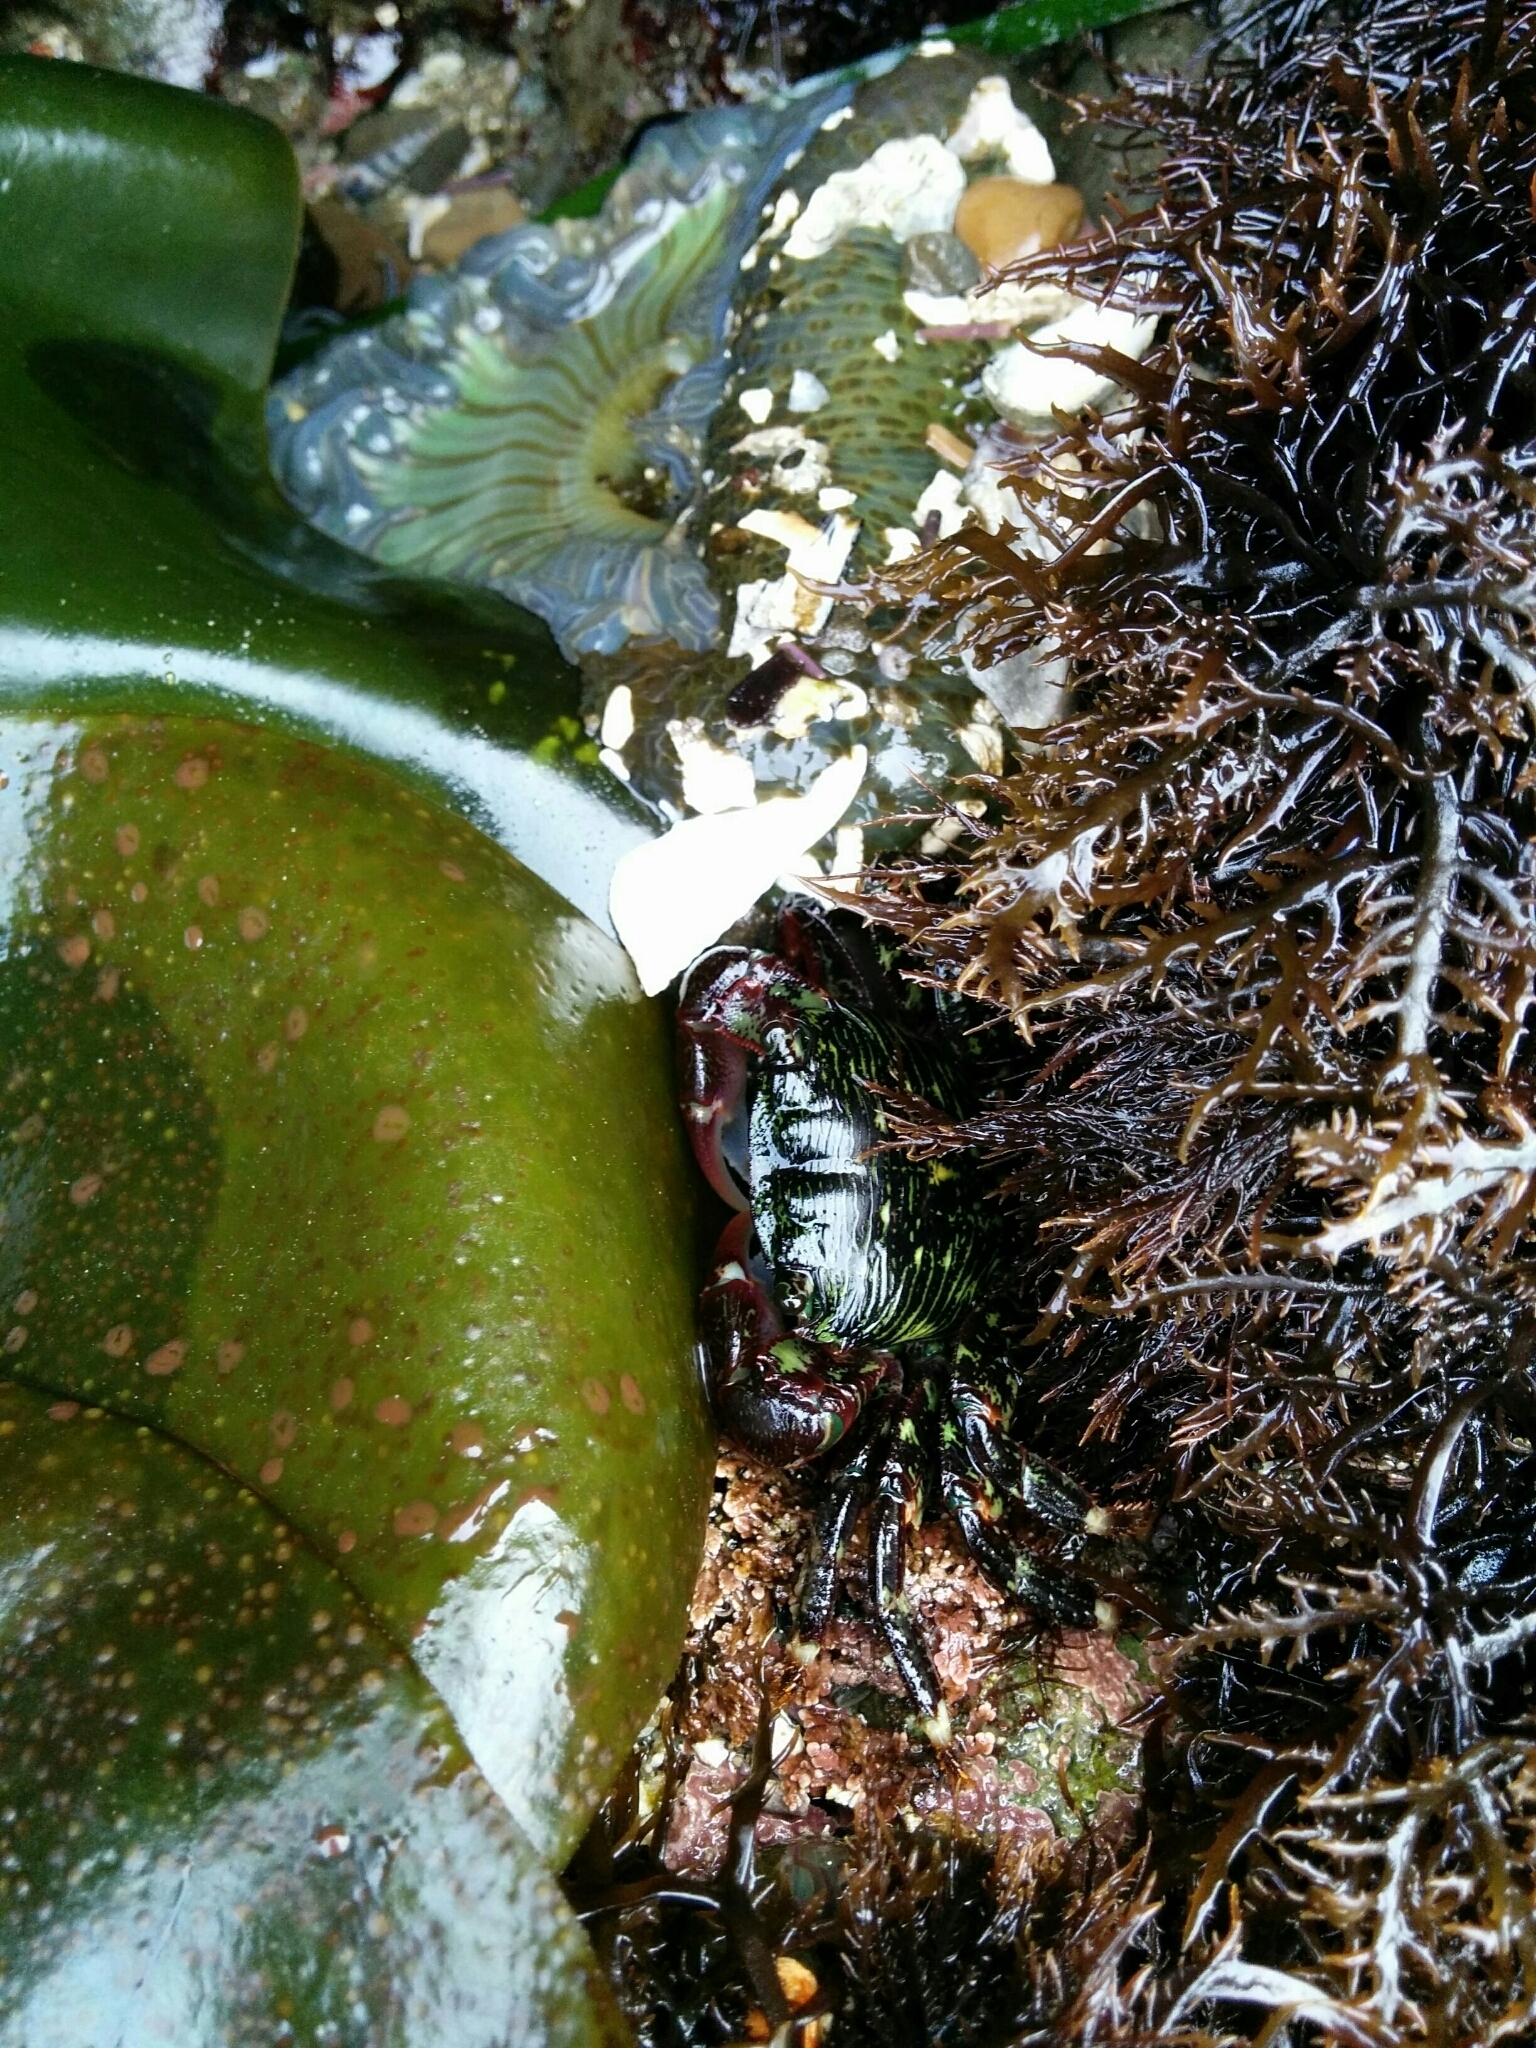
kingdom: Animalia
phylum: Arthropoda
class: Malacostraca
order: Decapoda
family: Grapsidae
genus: Pachygrapsus
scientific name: Pachygrapsus crassipes
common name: Striped shore crab
